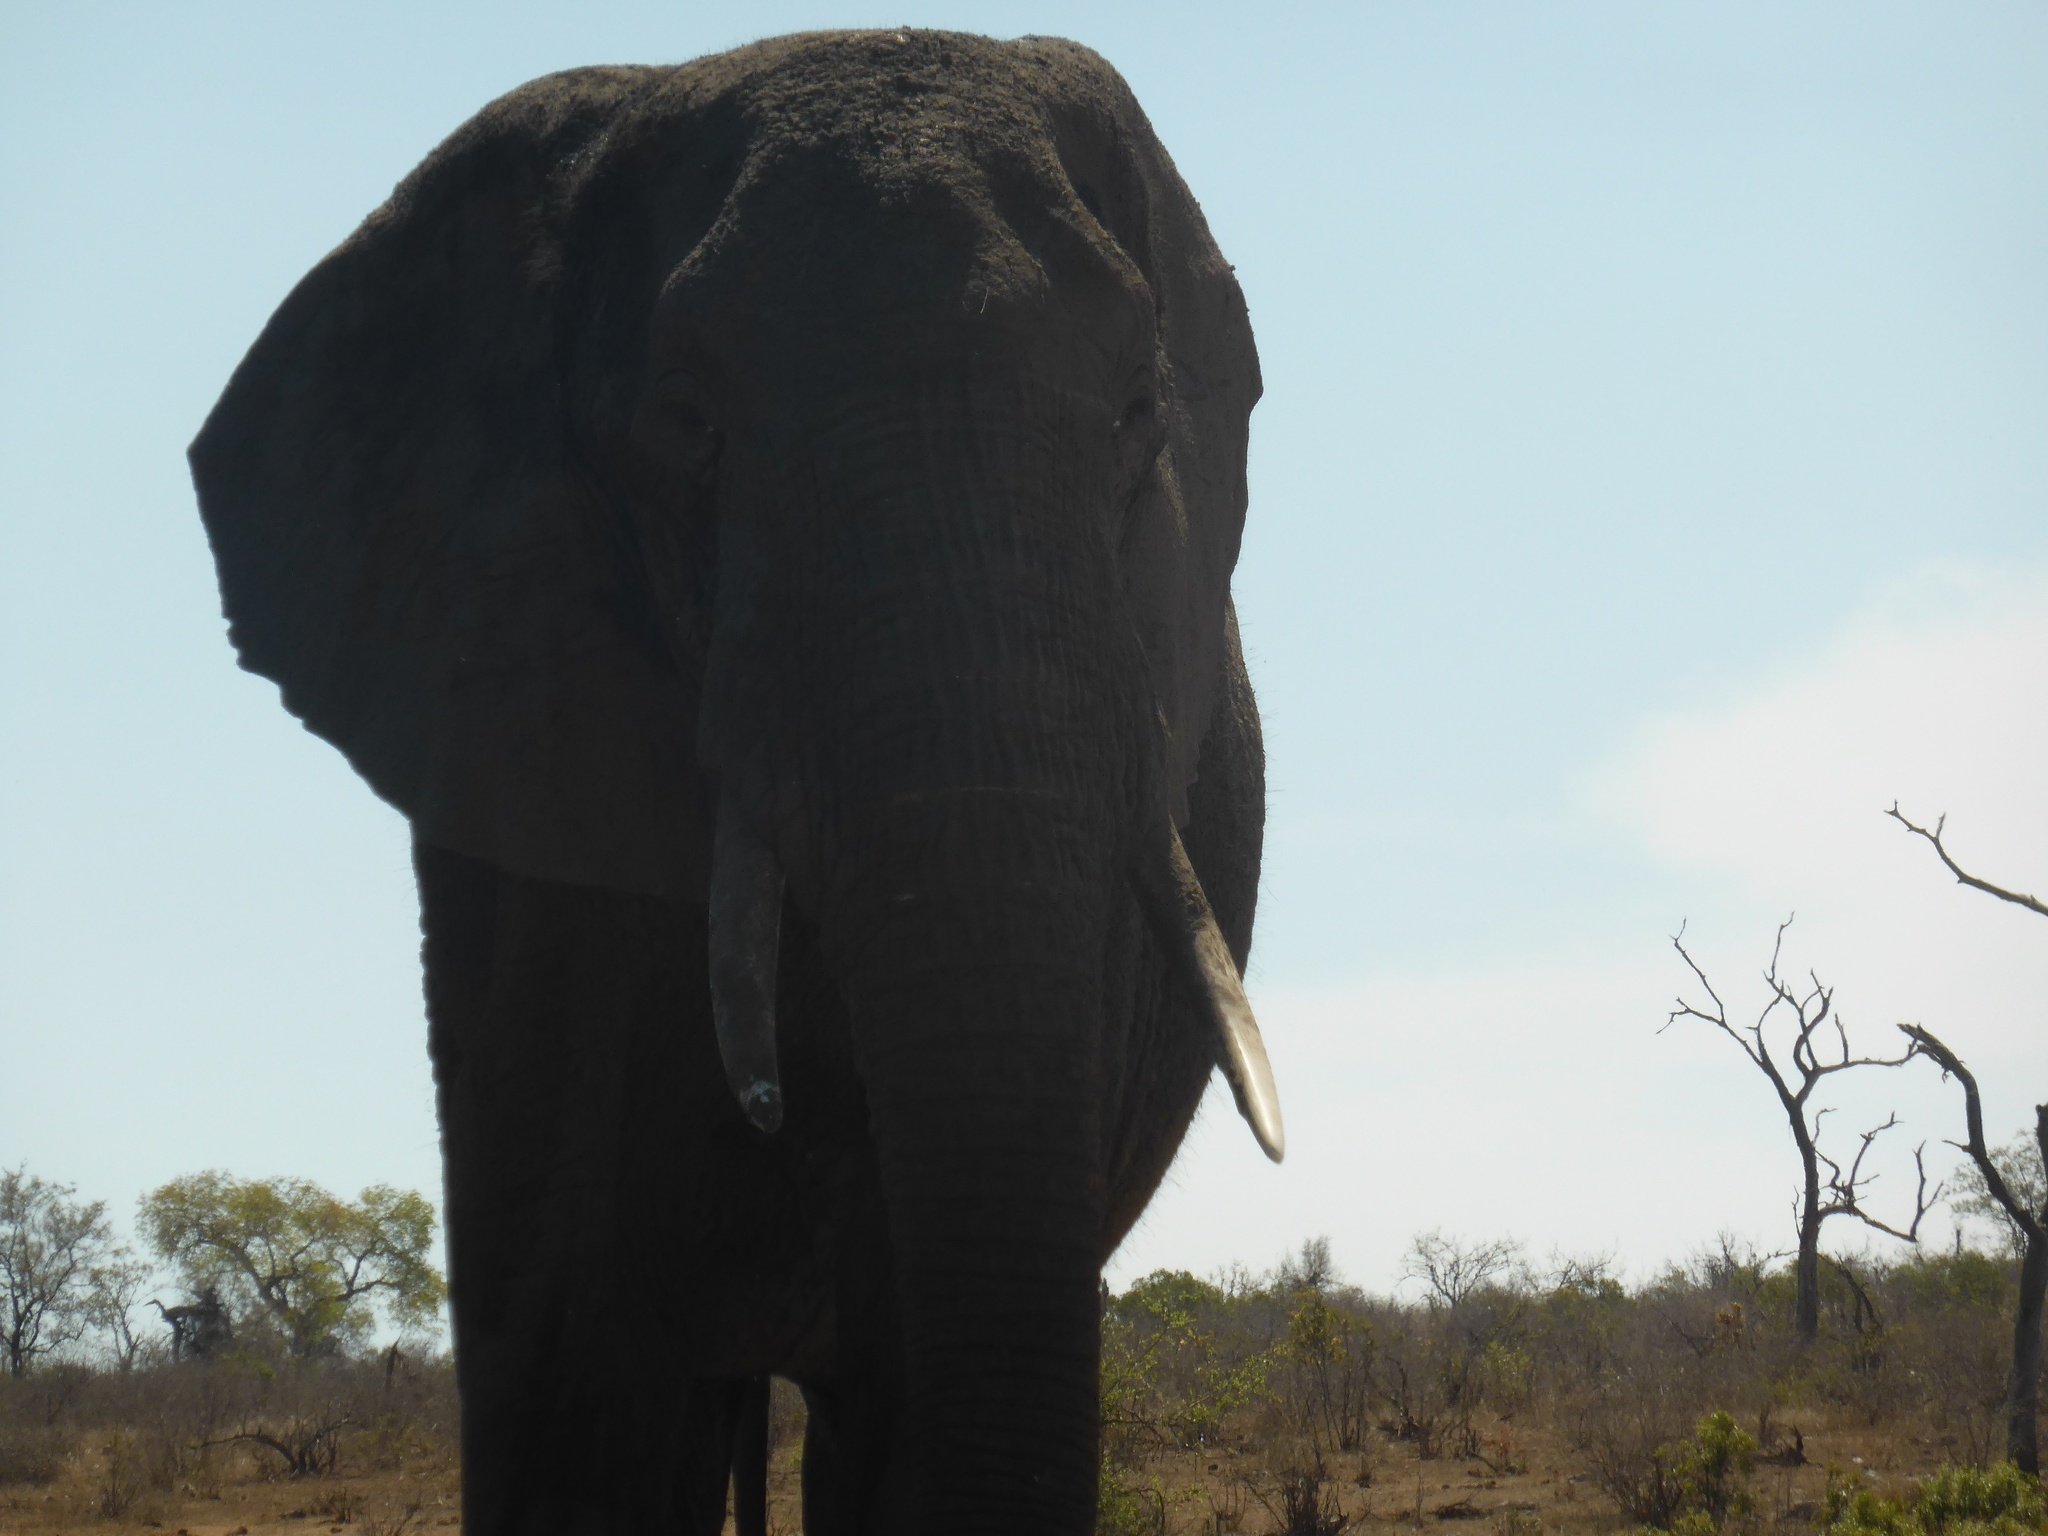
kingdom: Animalia
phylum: Chordata
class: Mammalia
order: Proboscidea
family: Elephantidae
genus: Loxodonta
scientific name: Loxodonta africana
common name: African elephant
